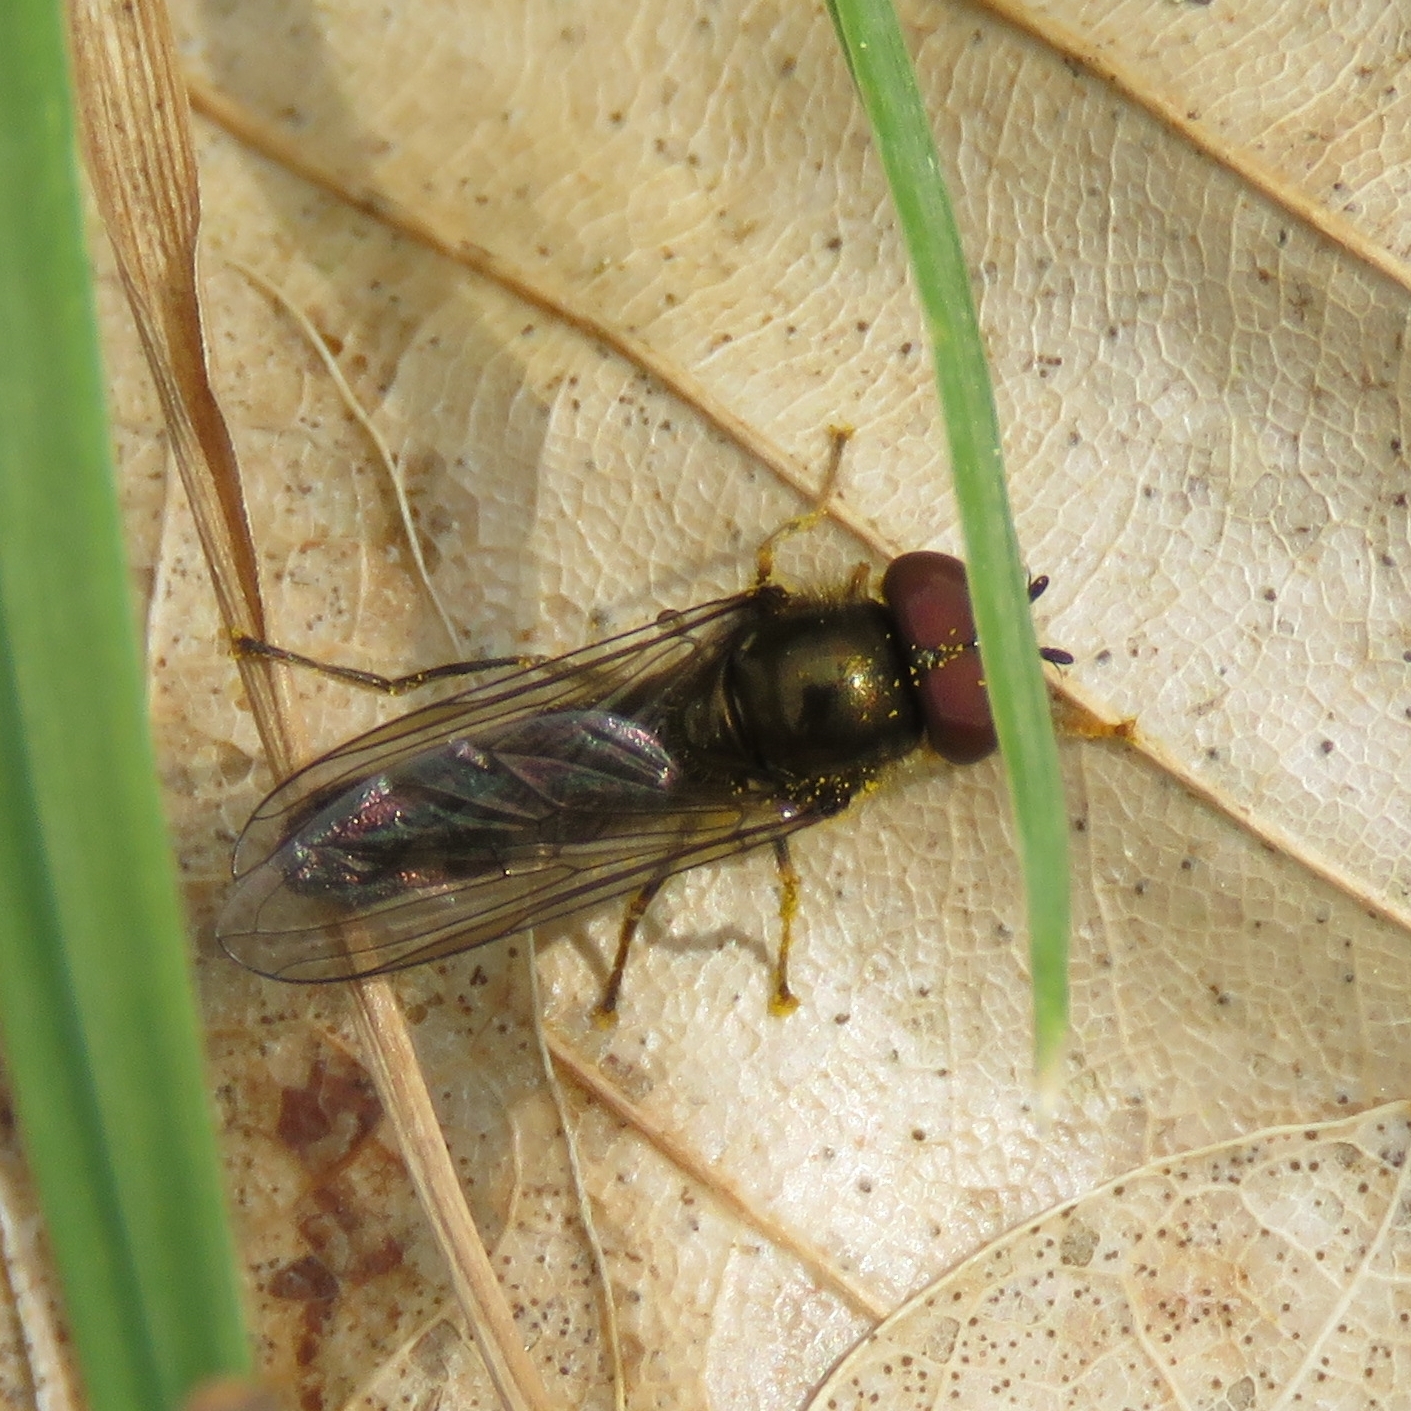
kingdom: Animalia
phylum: Arthropoda
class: Insecta
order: Diptera
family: Syrphidae
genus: Platycheirus
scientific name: Platycheirus
